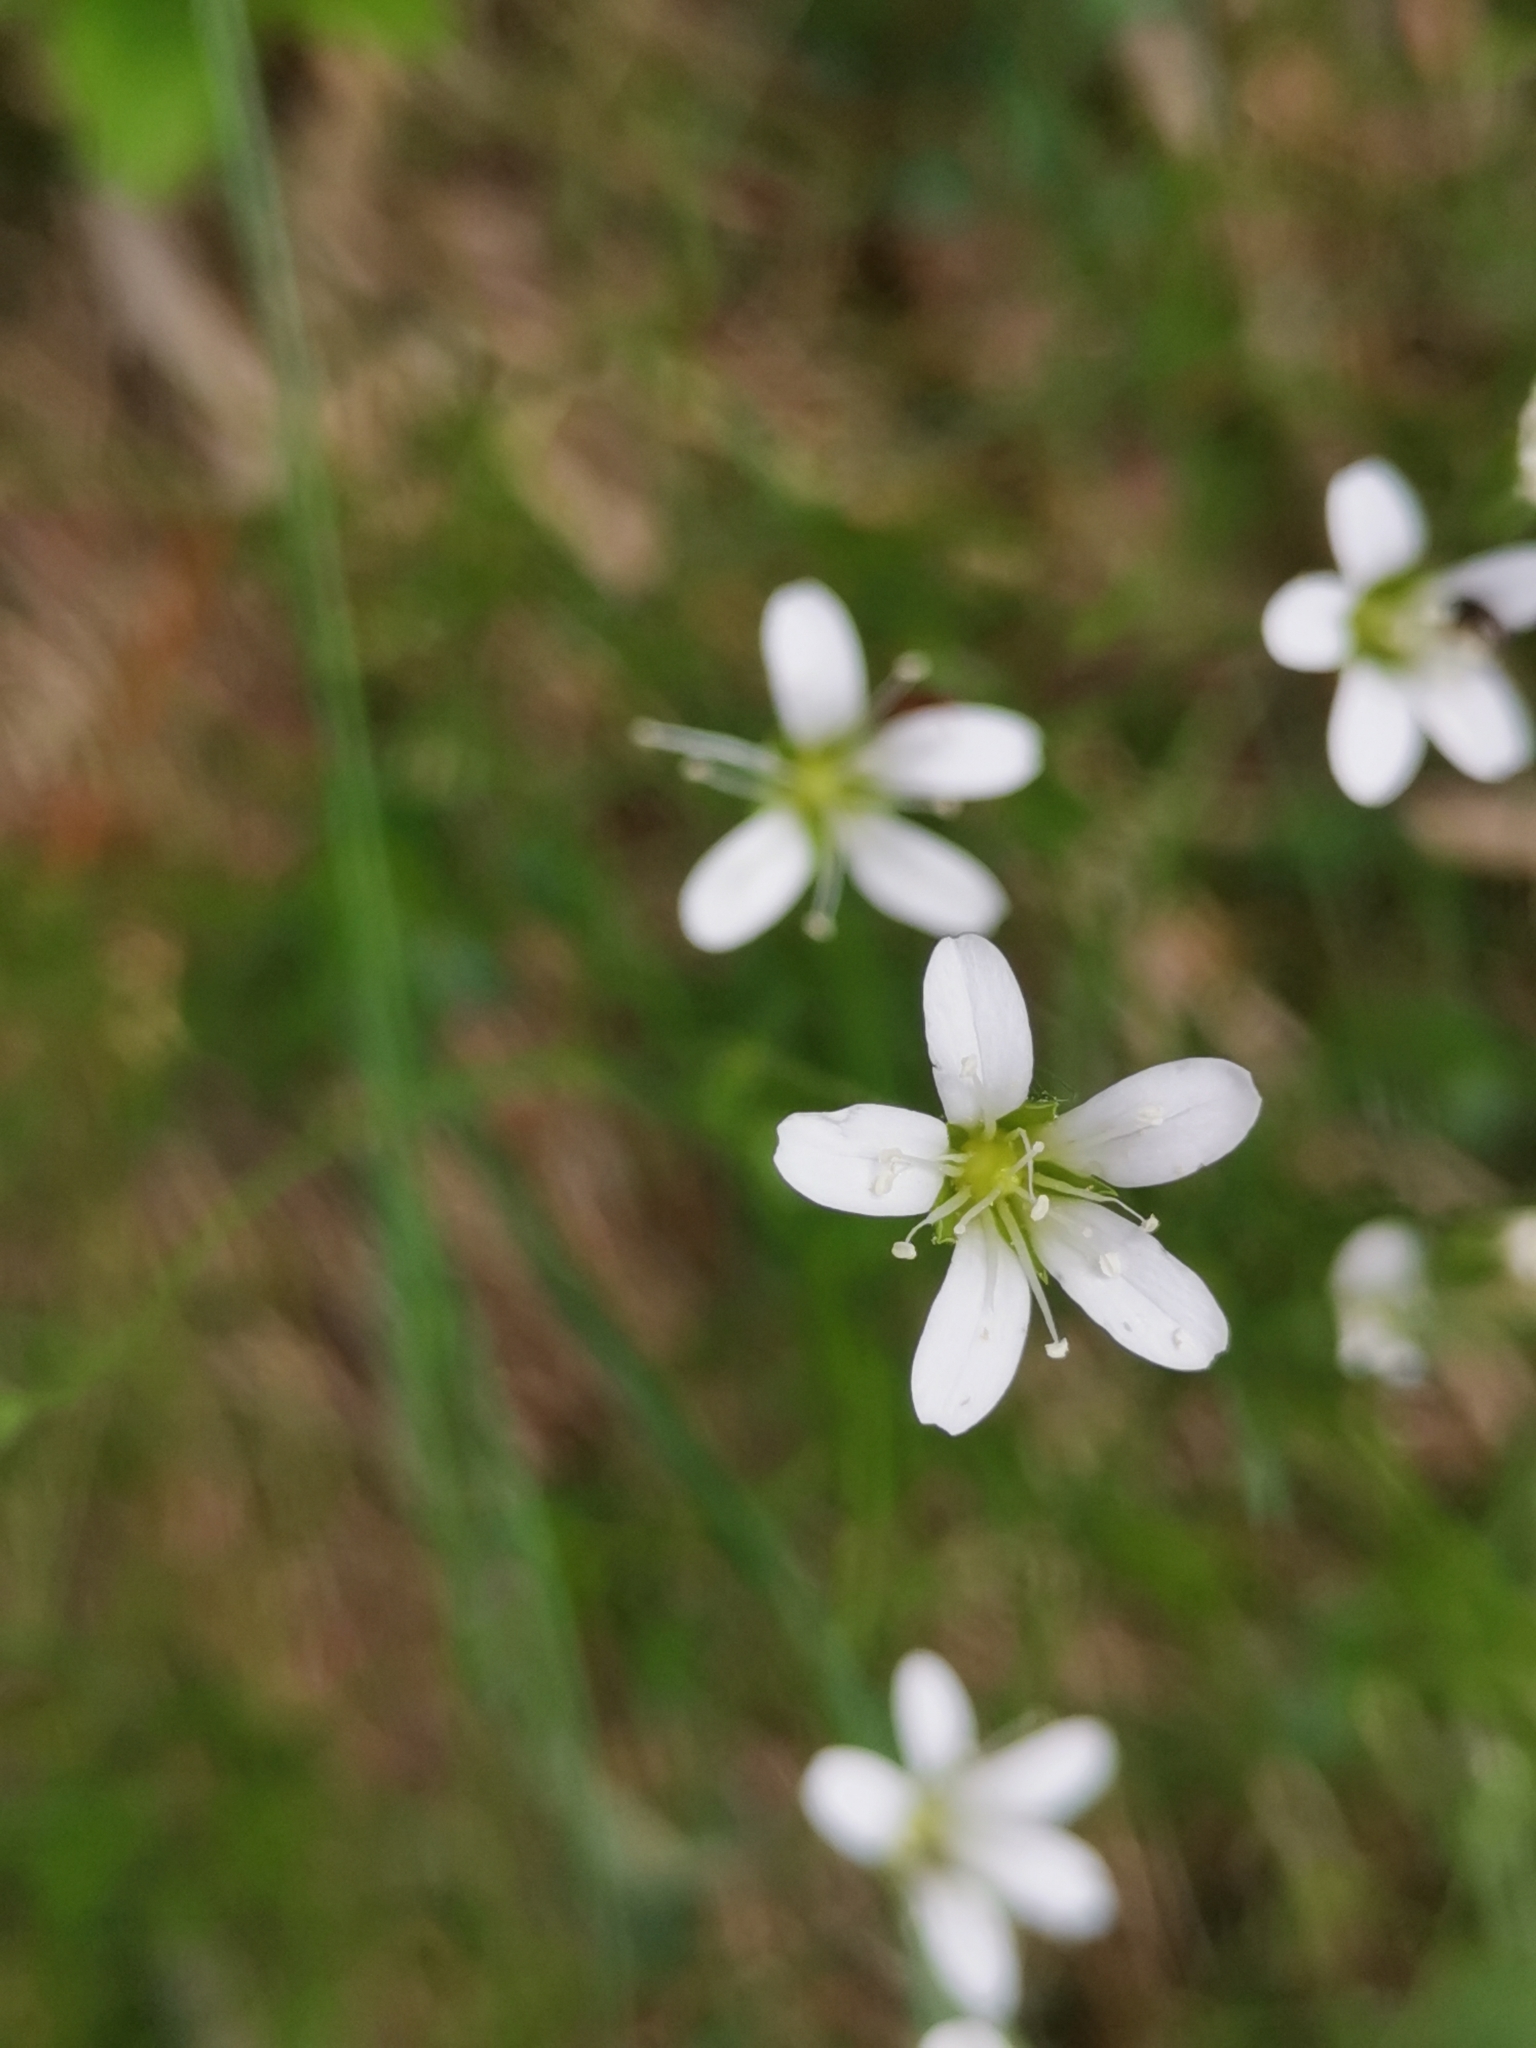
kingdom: Plantae
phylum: Tracheophyta
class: Magnoliopsida
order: Caryophyllales
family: Caryophyllaceae
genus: Sabulina
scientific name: Sabulina austriaca
